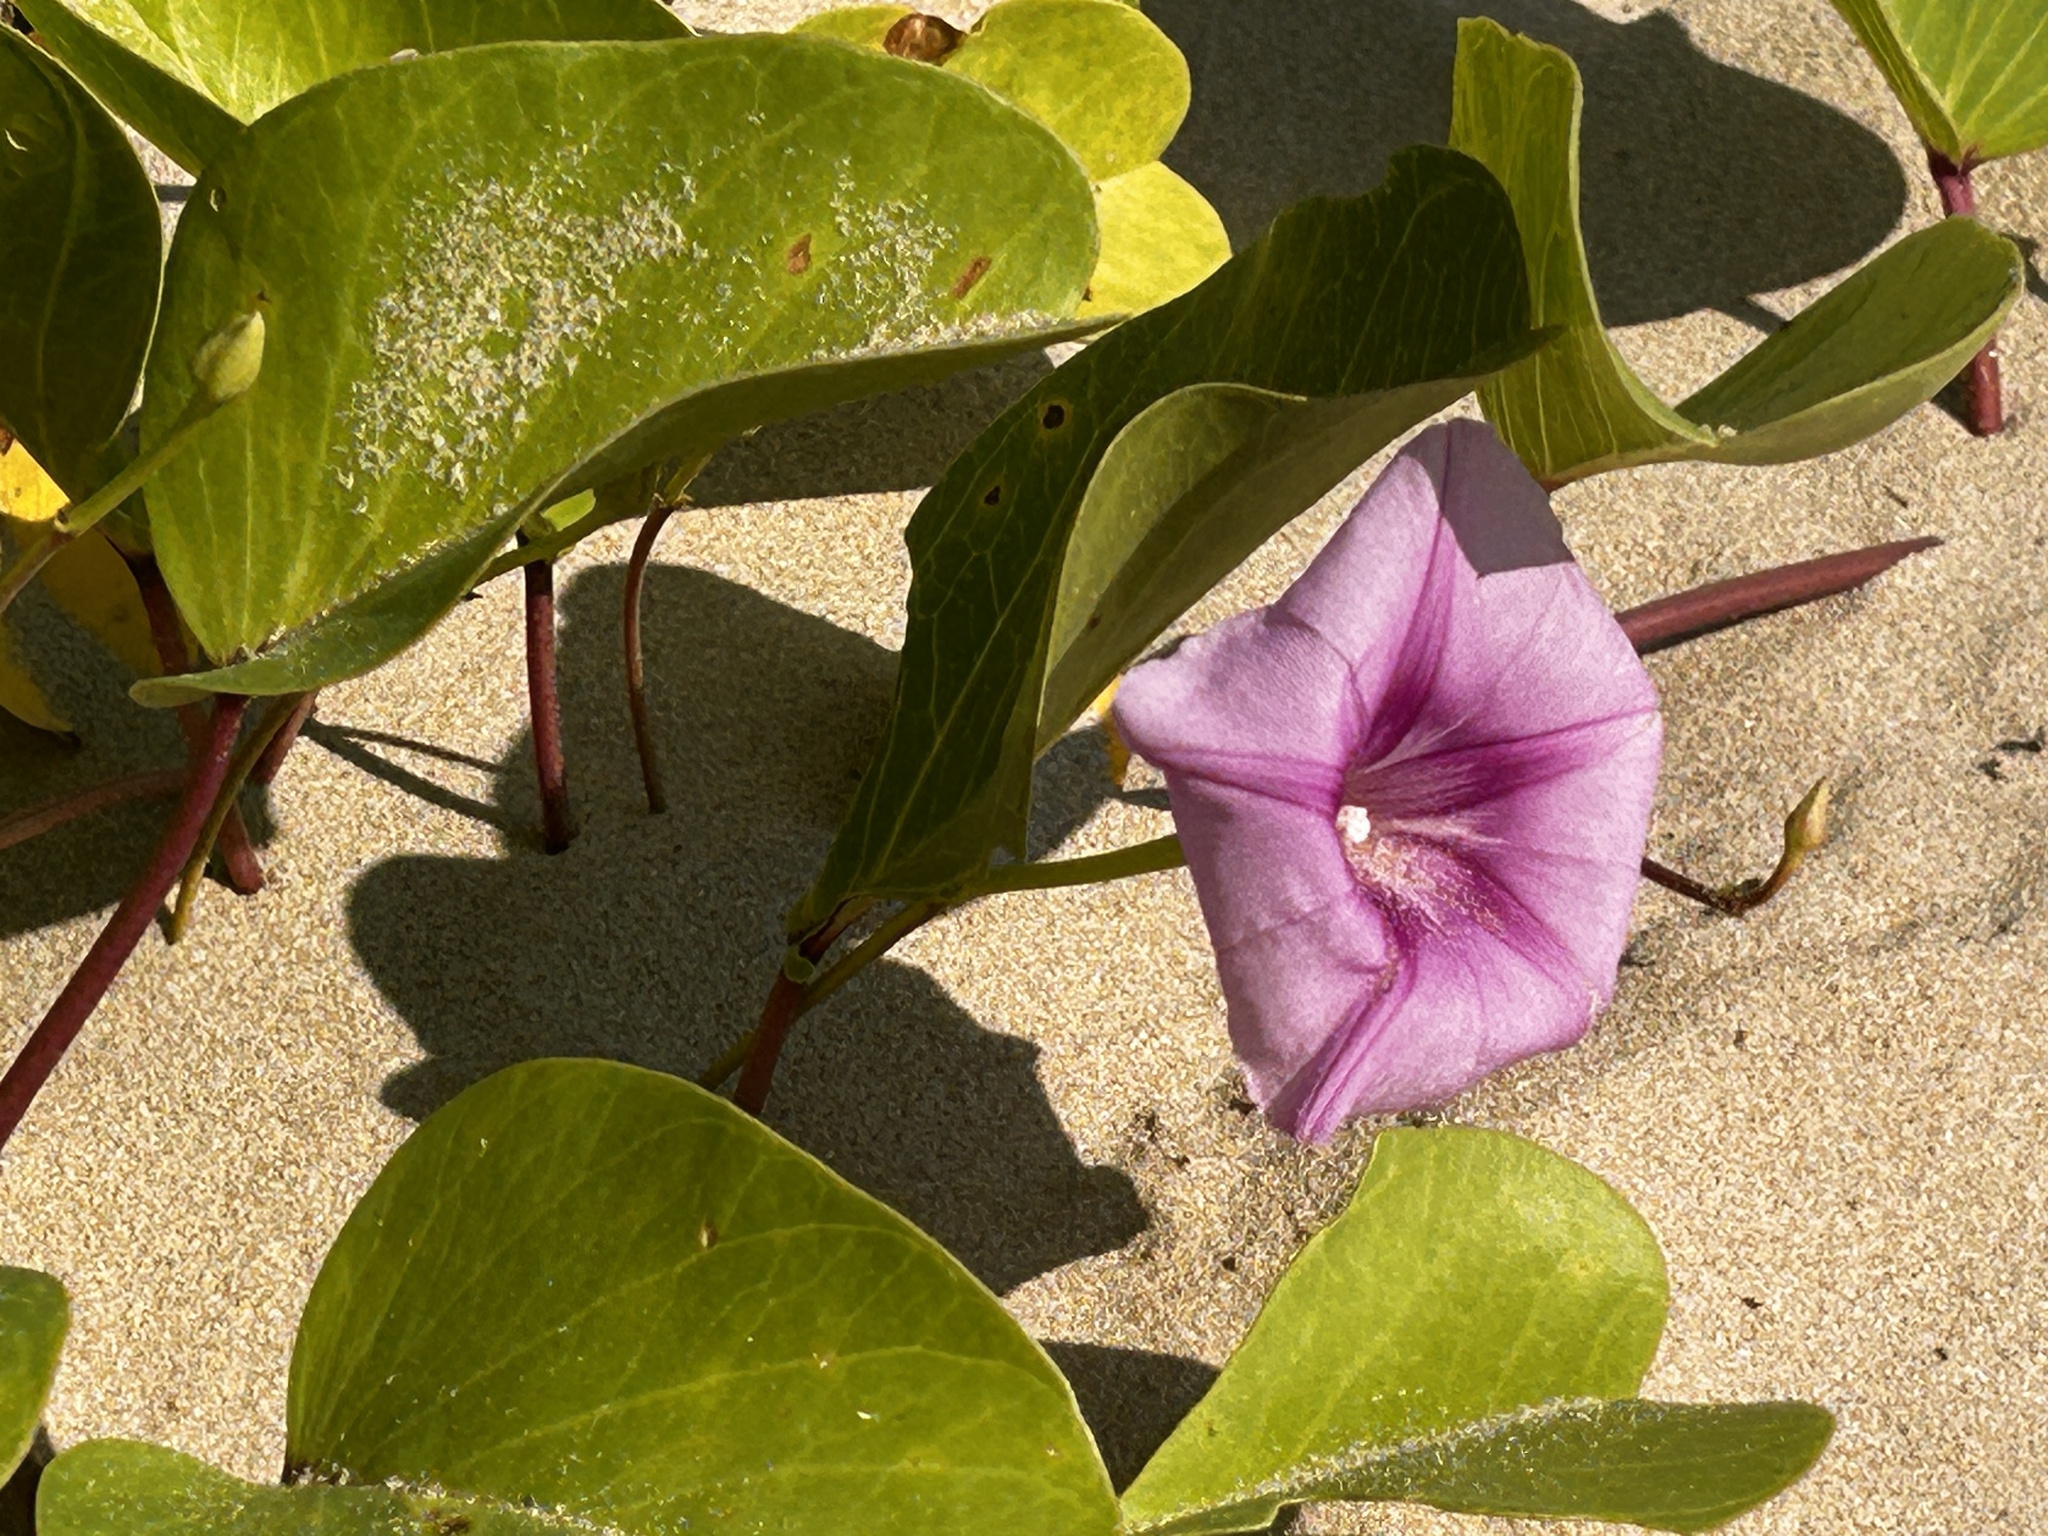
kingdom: Plantae
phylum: Tracheophyta
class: Magnoliopsida
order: Solanales
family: Convolvulaceae
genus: Ipomoea
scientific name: Ipomoea pes-caprae
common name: Beach morning glory
